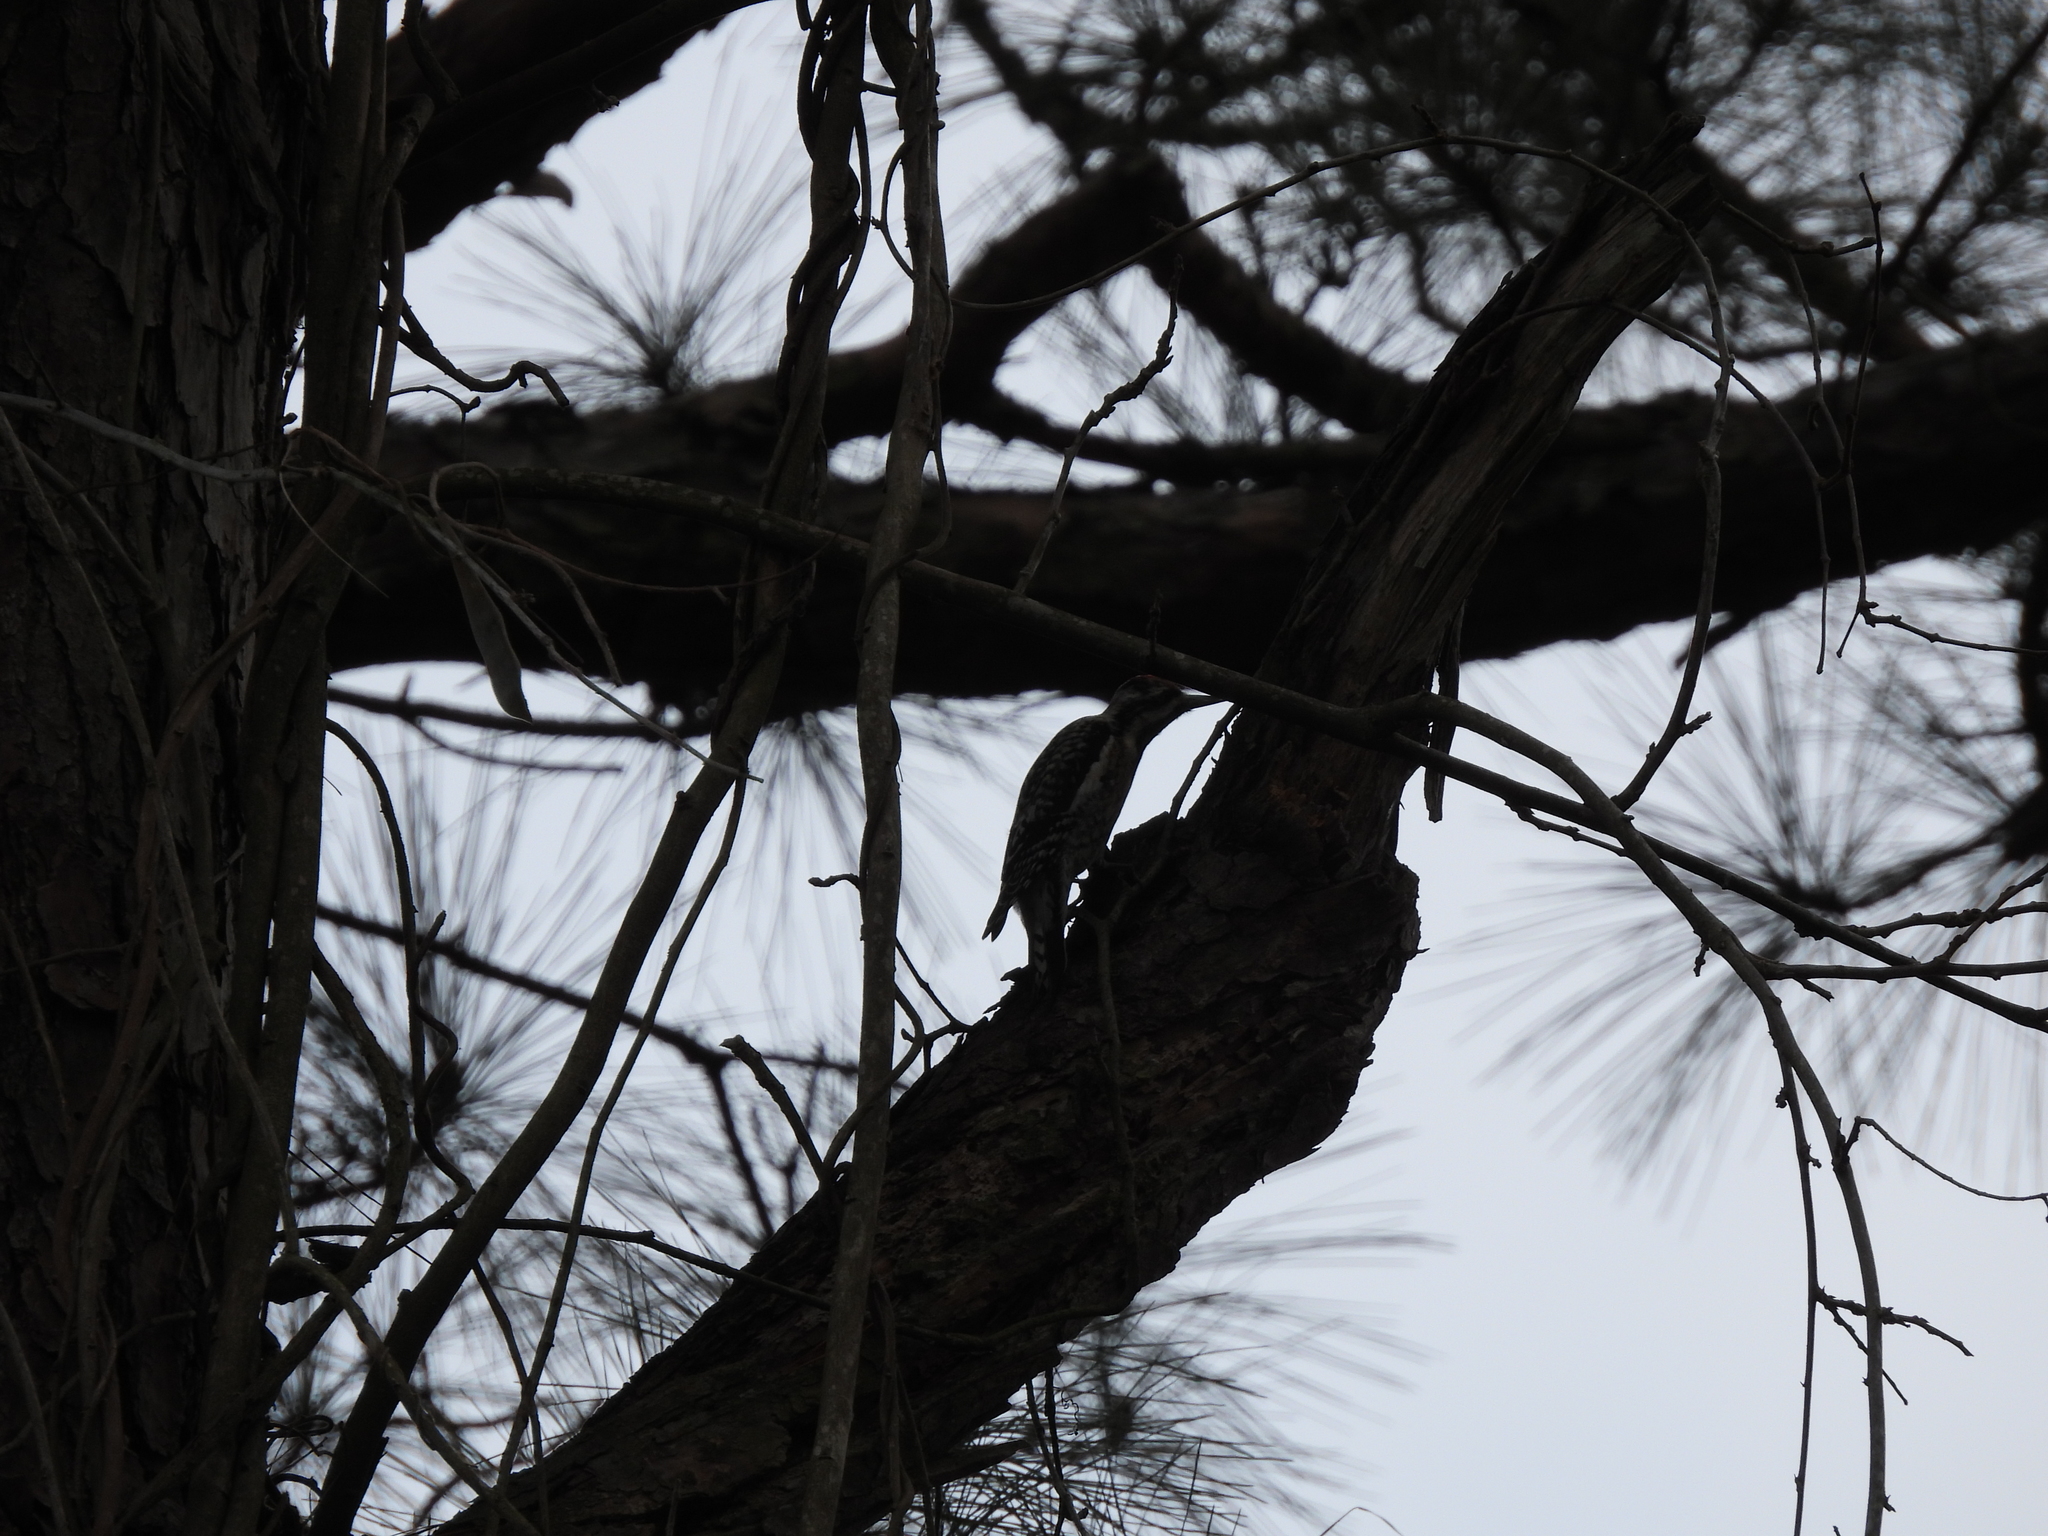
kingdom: Animalia
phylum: Chordata
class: Aves
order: Piciformes
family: Picidae
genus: Sphyrapicus
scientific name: Sphyrapicus varius
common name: Yellow-bellied sapsucker
